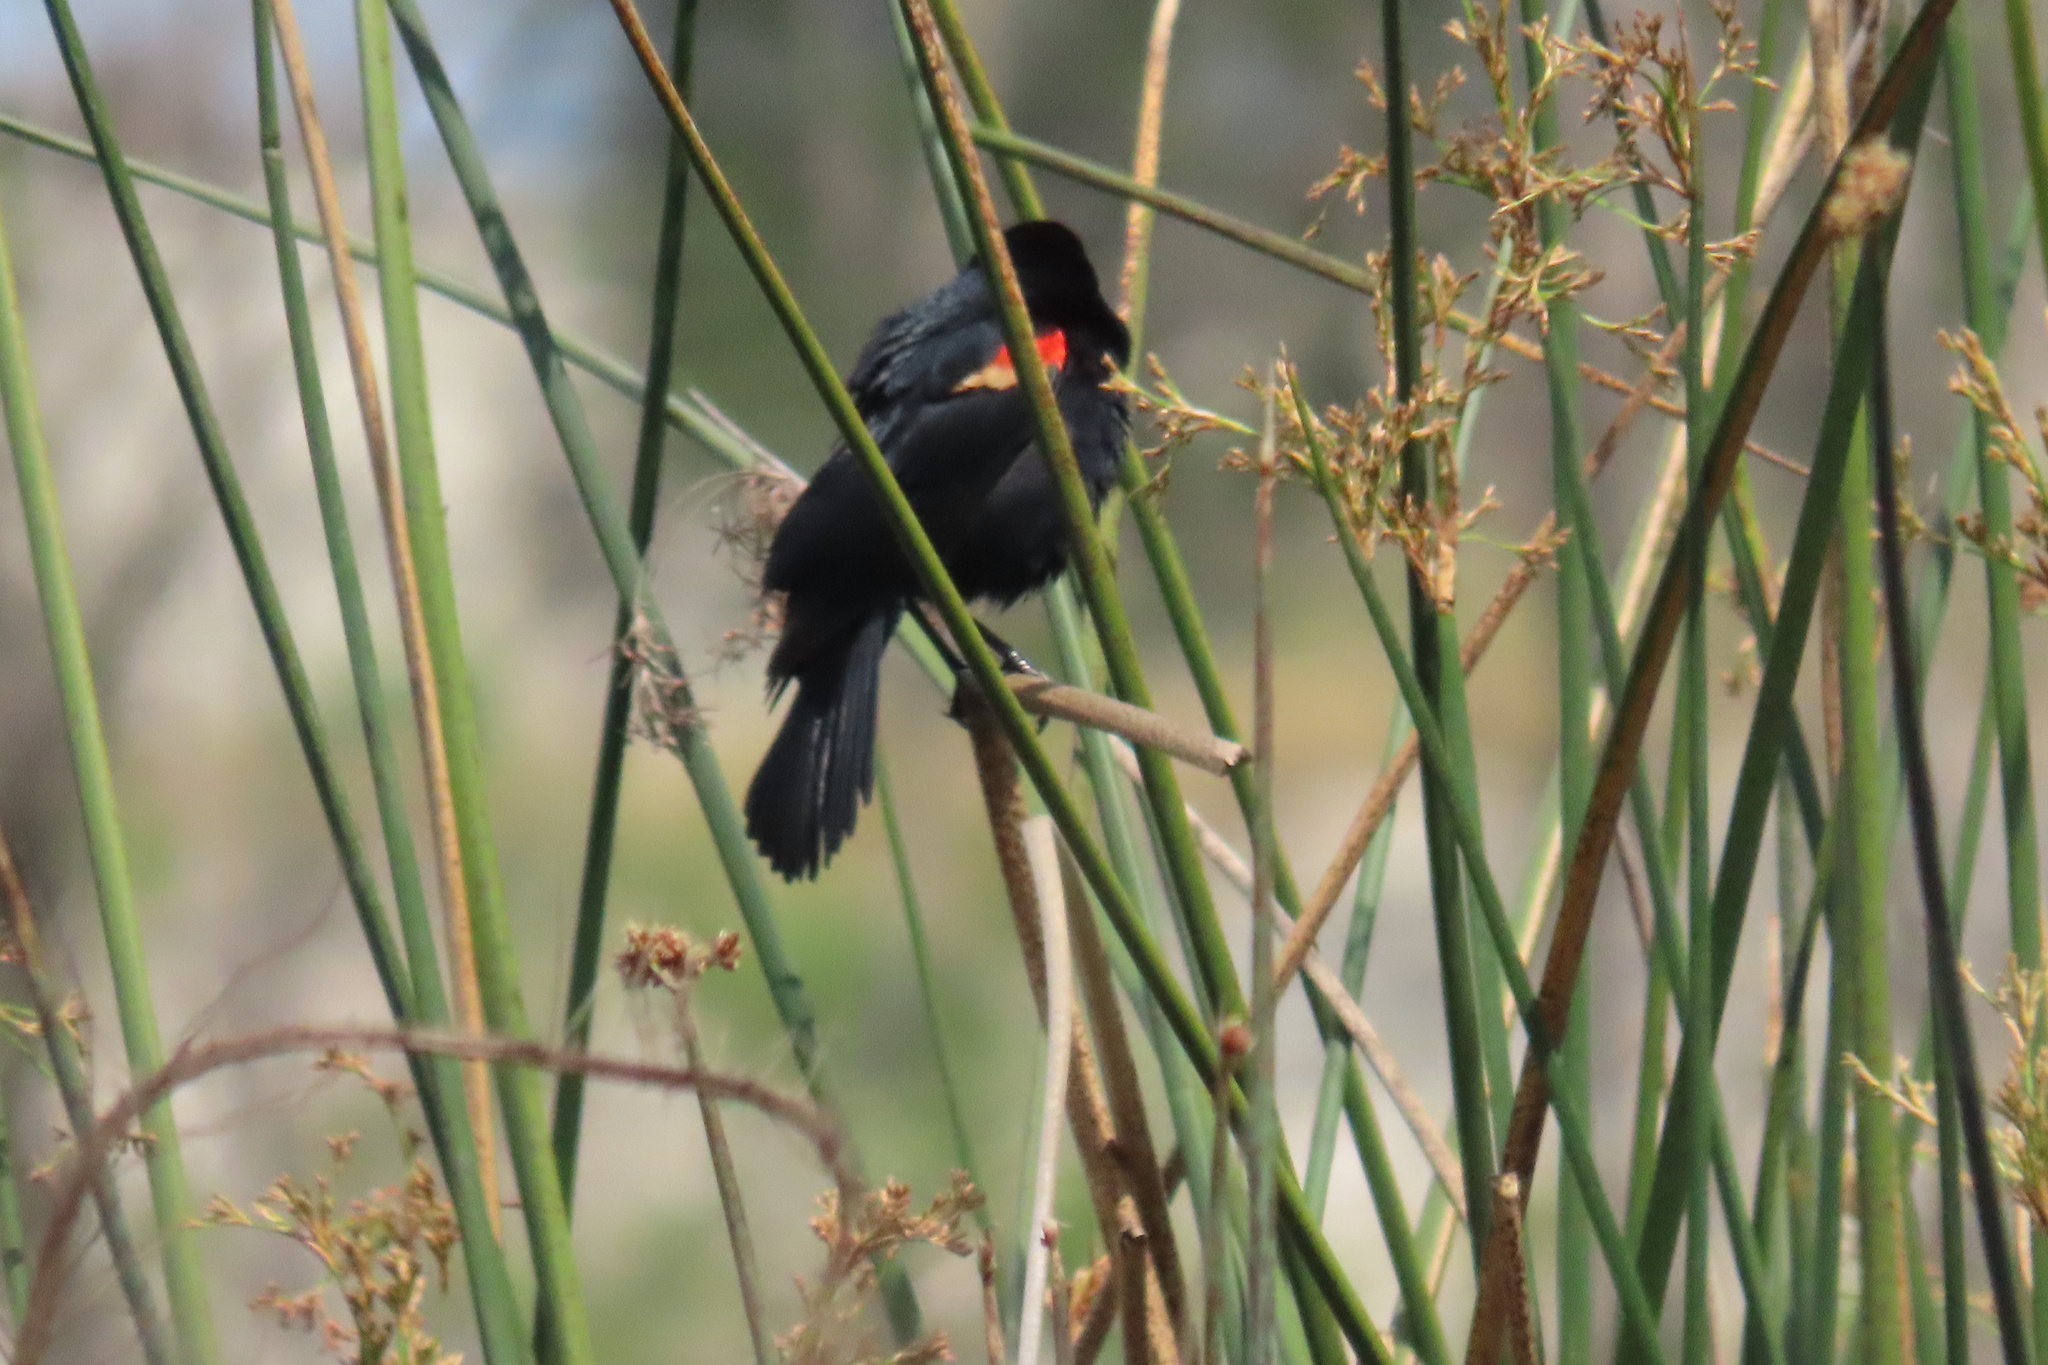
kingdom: Animalia
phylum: Chordata
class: Aves
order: Passeriformes
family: Icteridae
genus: Agelaius
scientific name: Agelaius phoeniceus
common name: Red-winged blackbird
